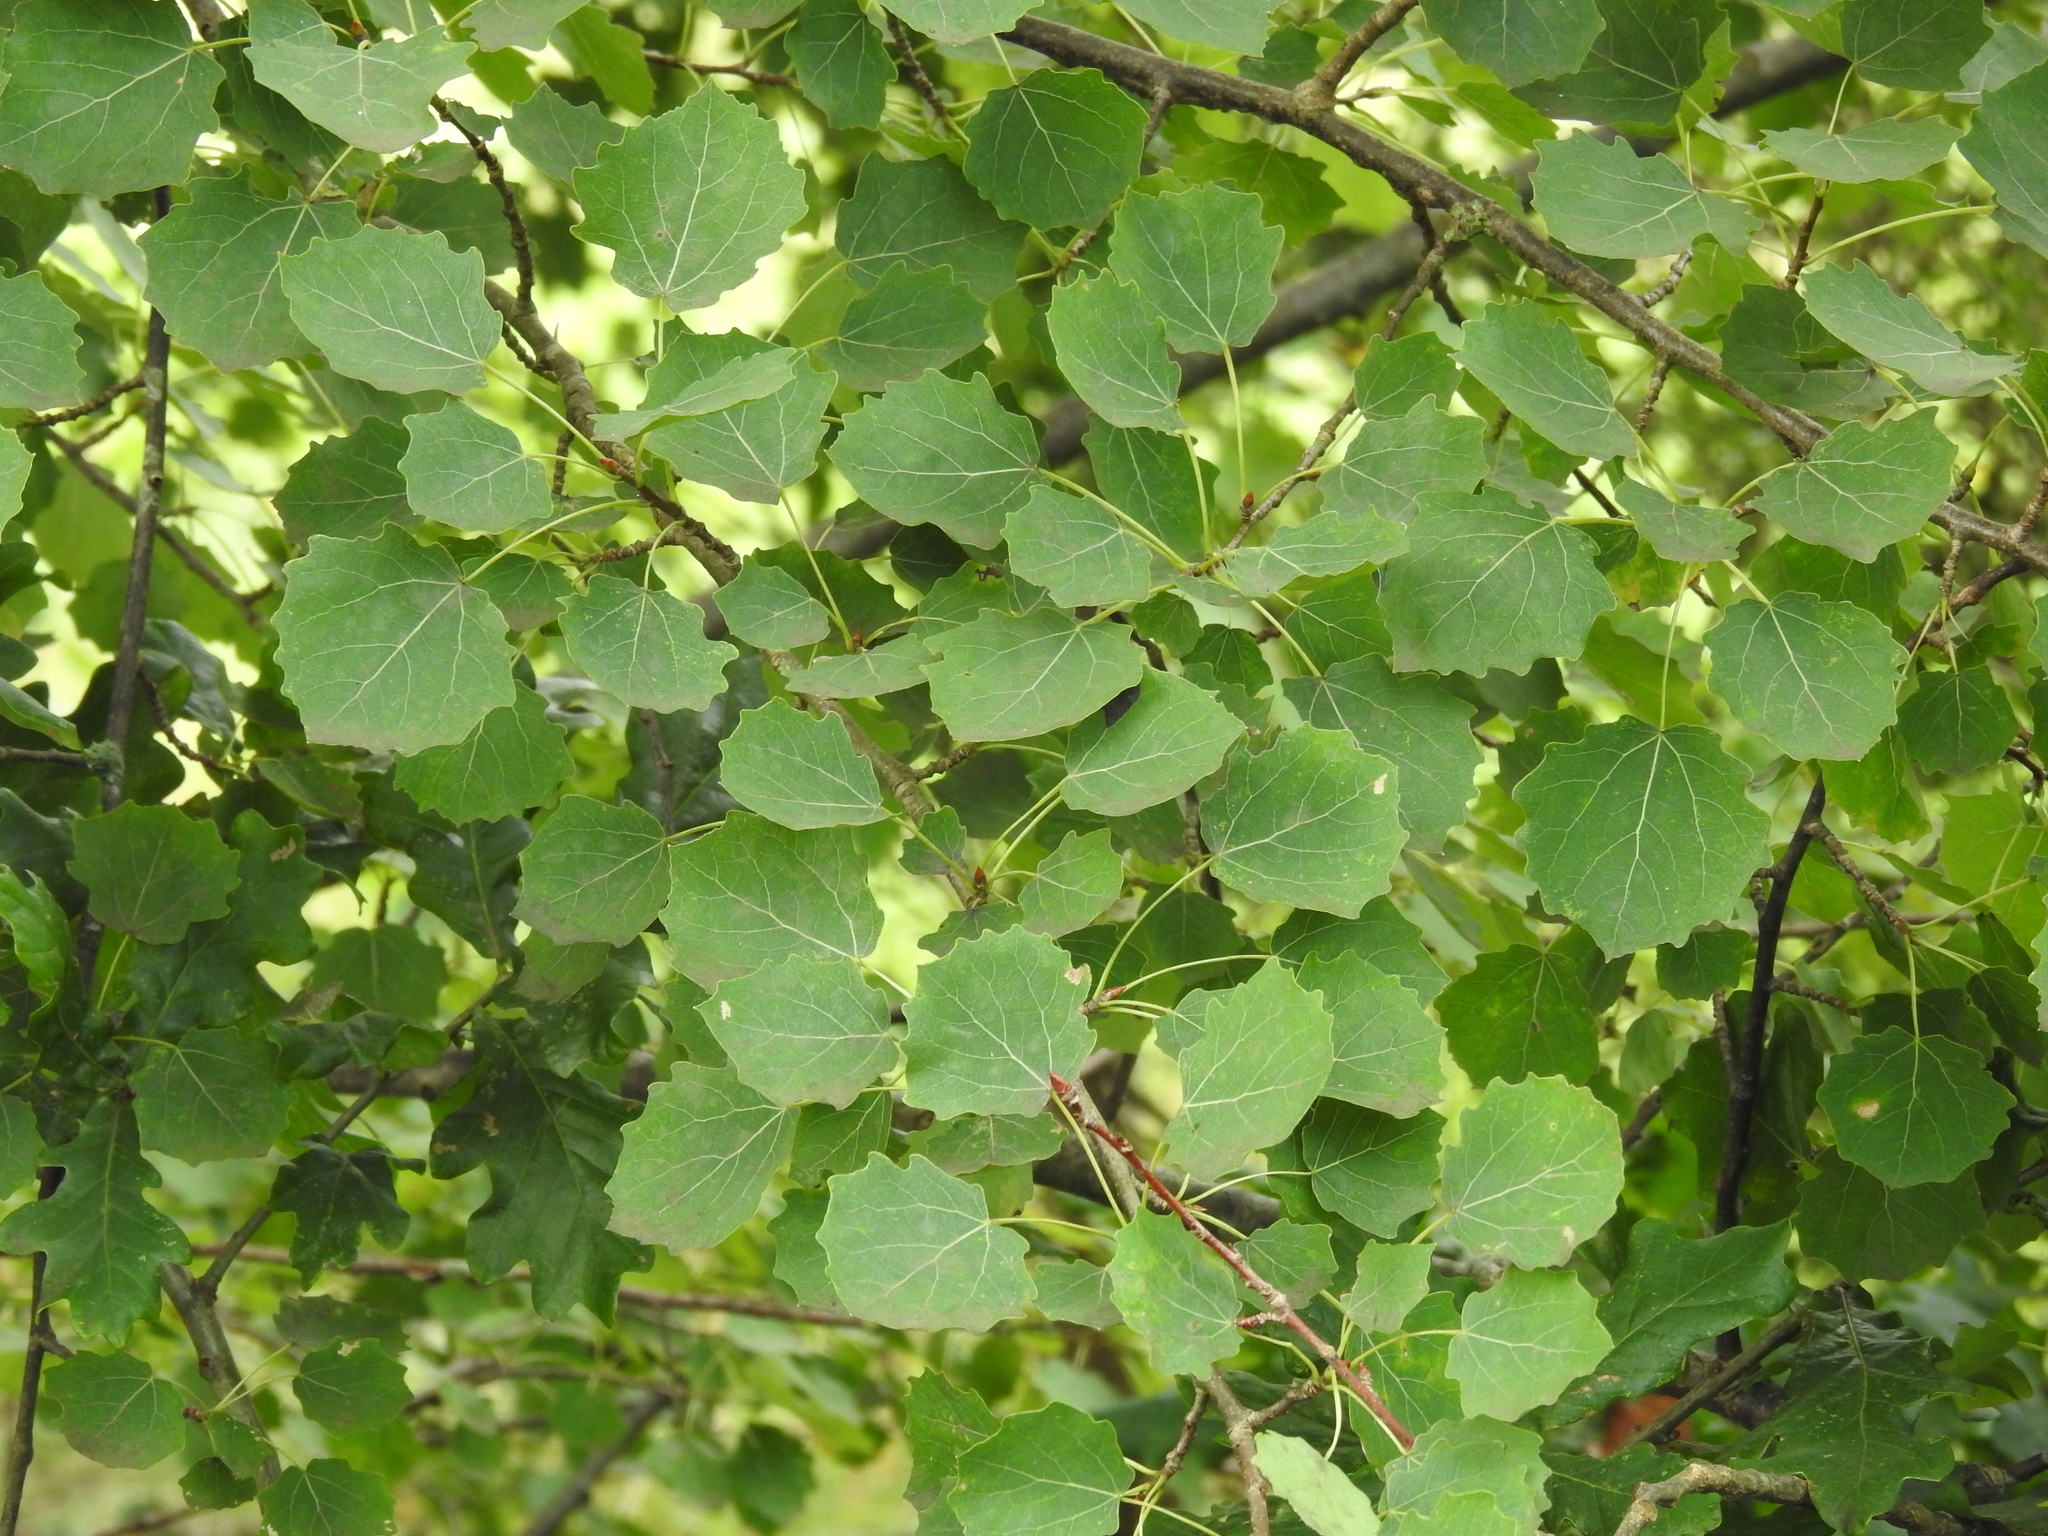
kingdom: Plantae
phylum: Tracheophyta
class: Magnoliopsida
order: Malpighiales
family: Salicaceae
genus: Populus
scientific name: Populus tremula
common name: European aspen
